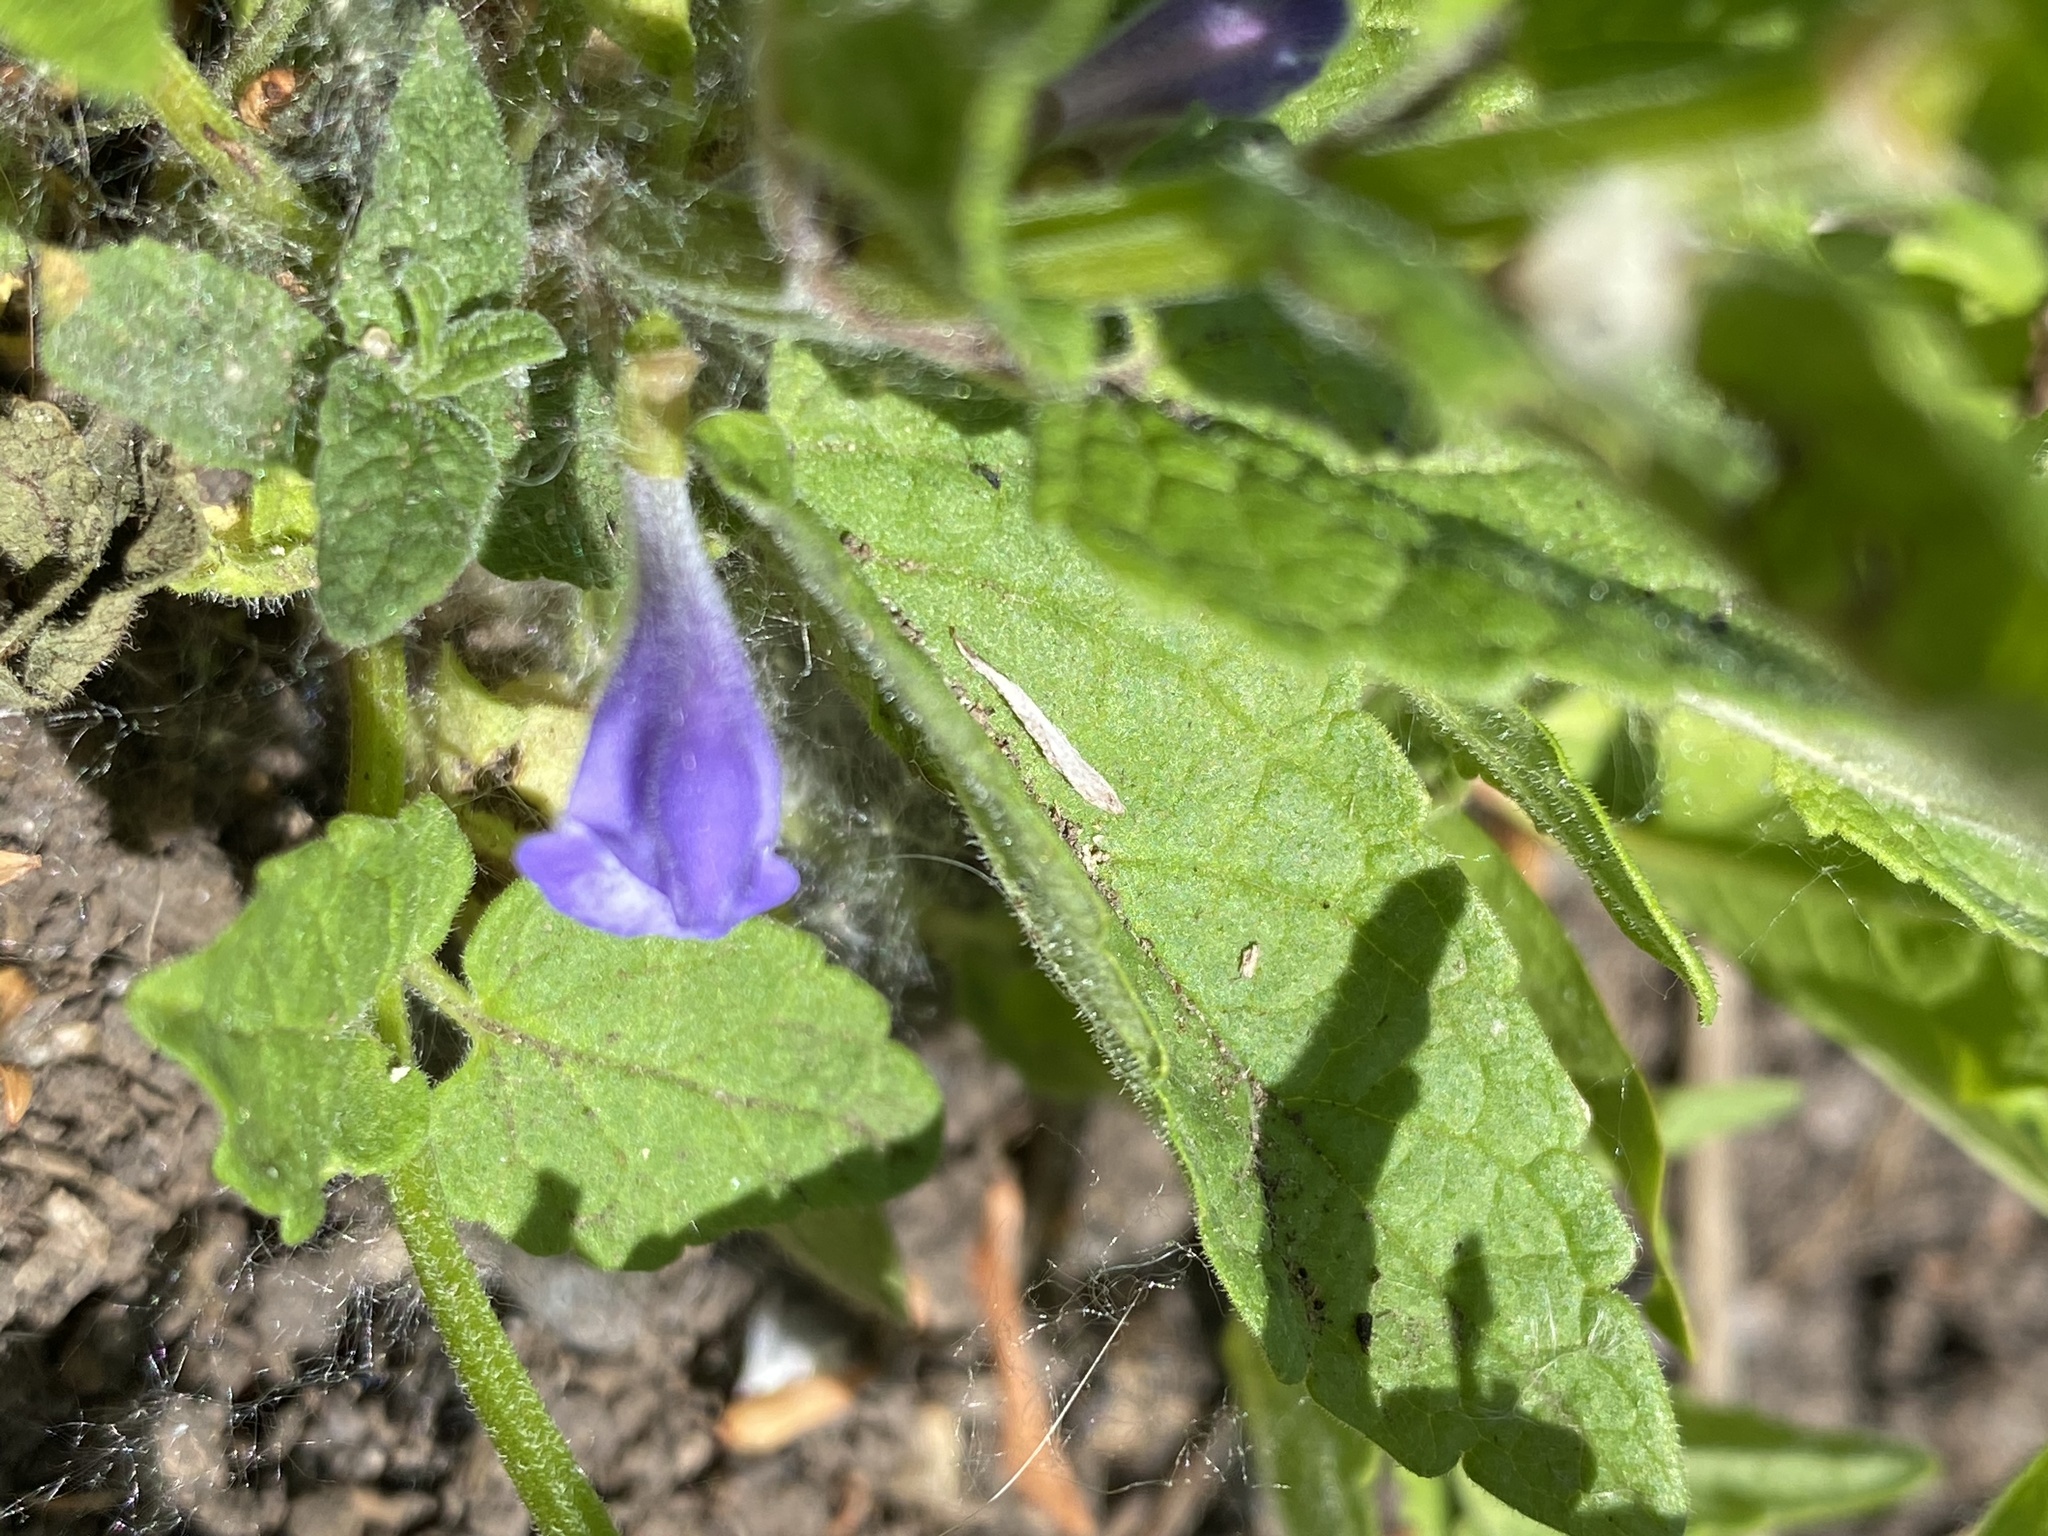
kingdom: Plantae
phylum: Tracheophyta
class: Magnoliopsida
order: Lamiales
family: Lamiaceae
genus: Scutellaria
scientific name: Scutellaria galericulata
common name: Skullcap
